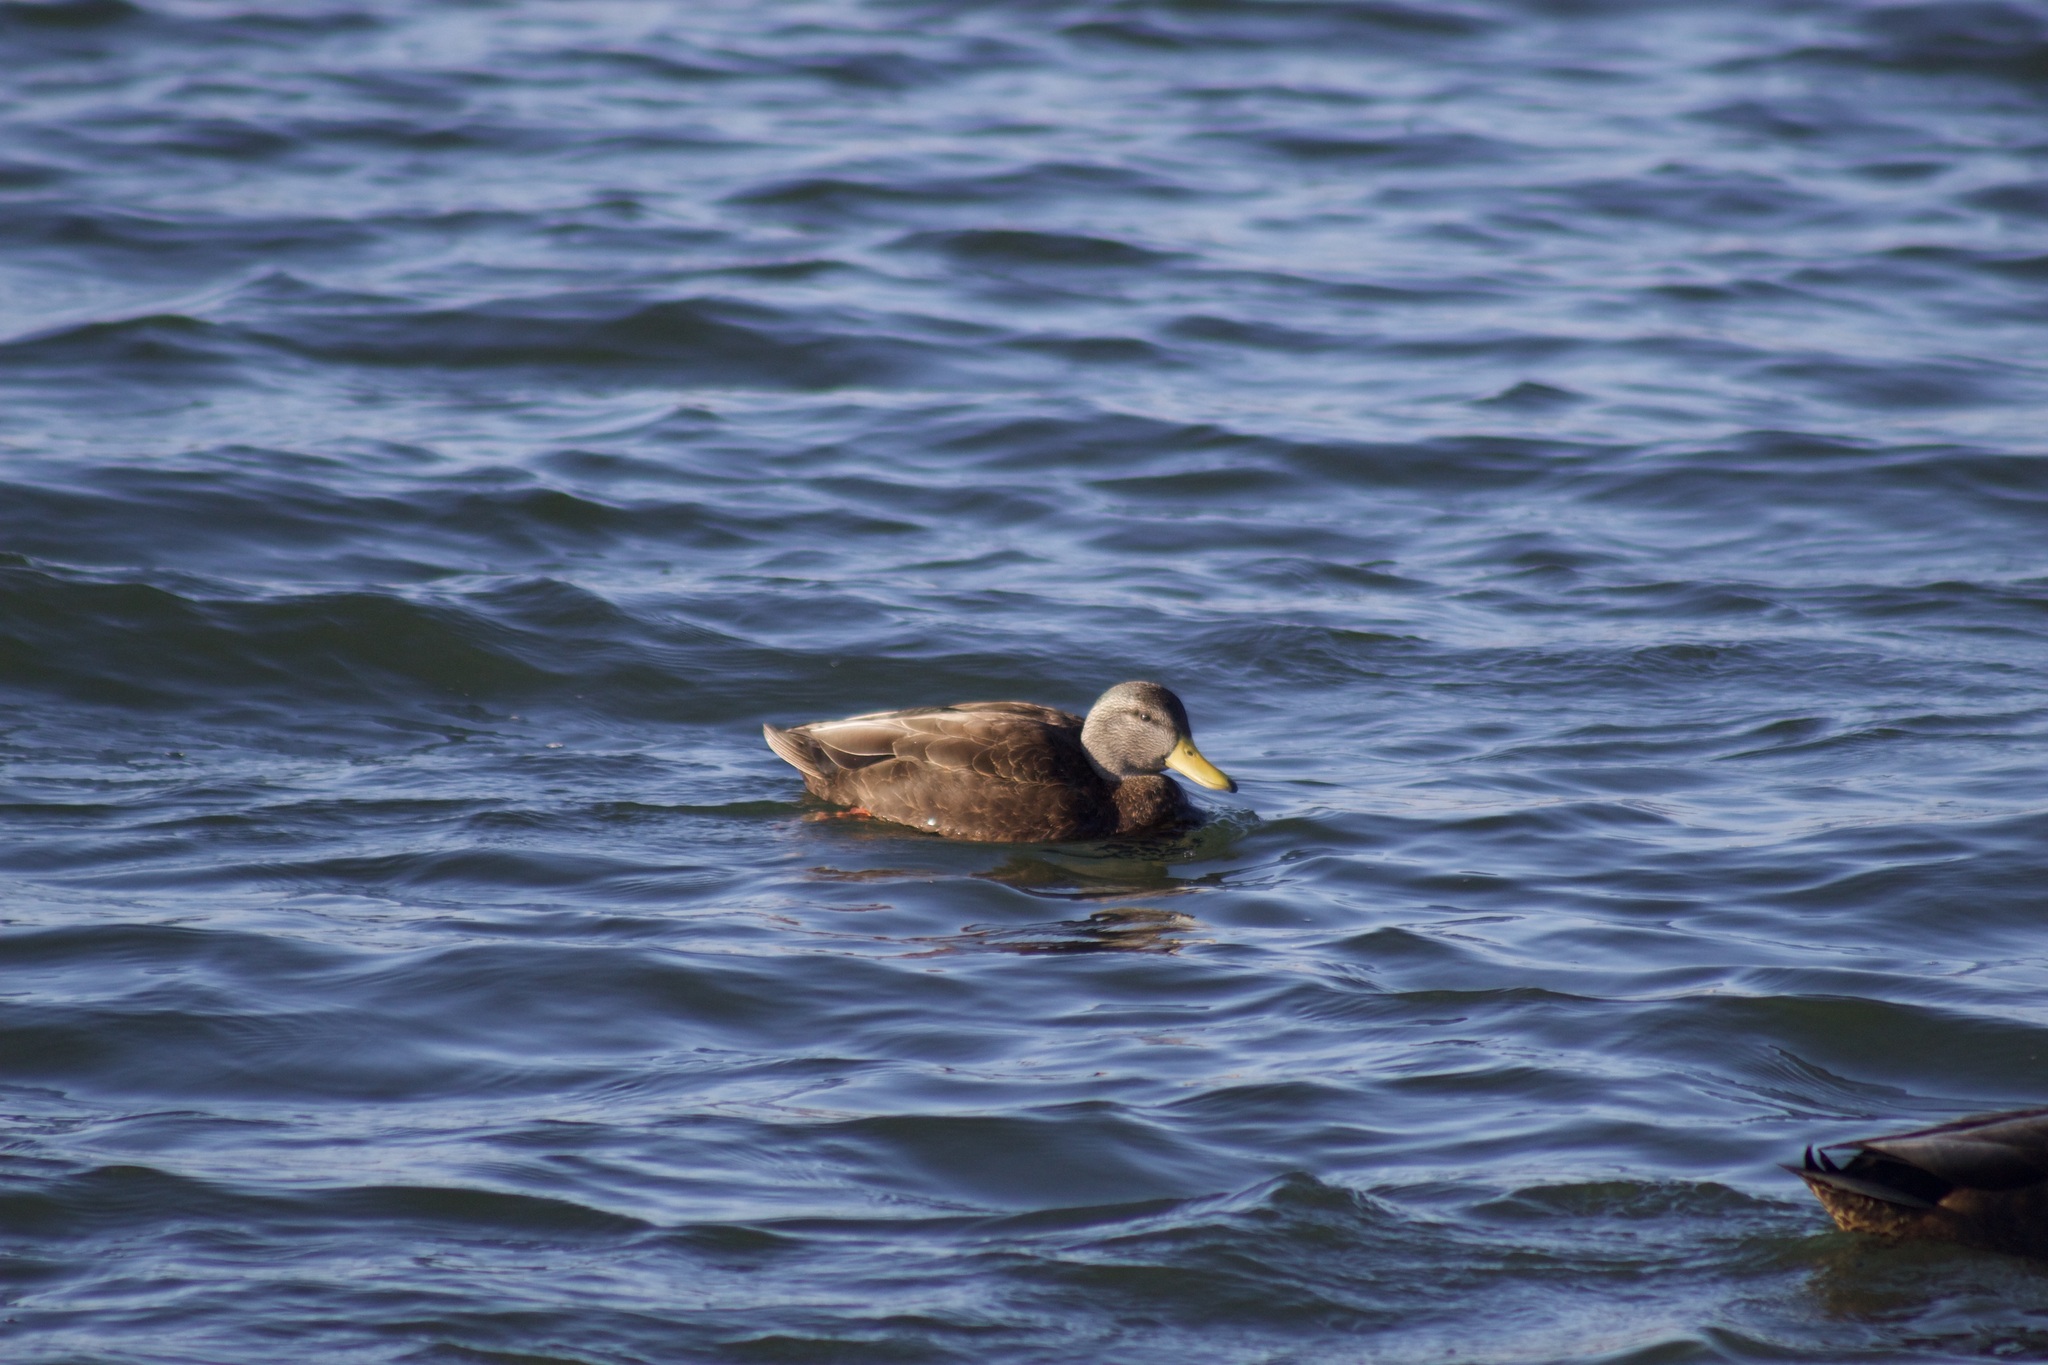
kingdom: Animalia
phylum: Chordata
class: Aves
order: Anseriformes
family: Anatidae
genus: Anas
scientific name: Anas rubripes
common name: American black duck
